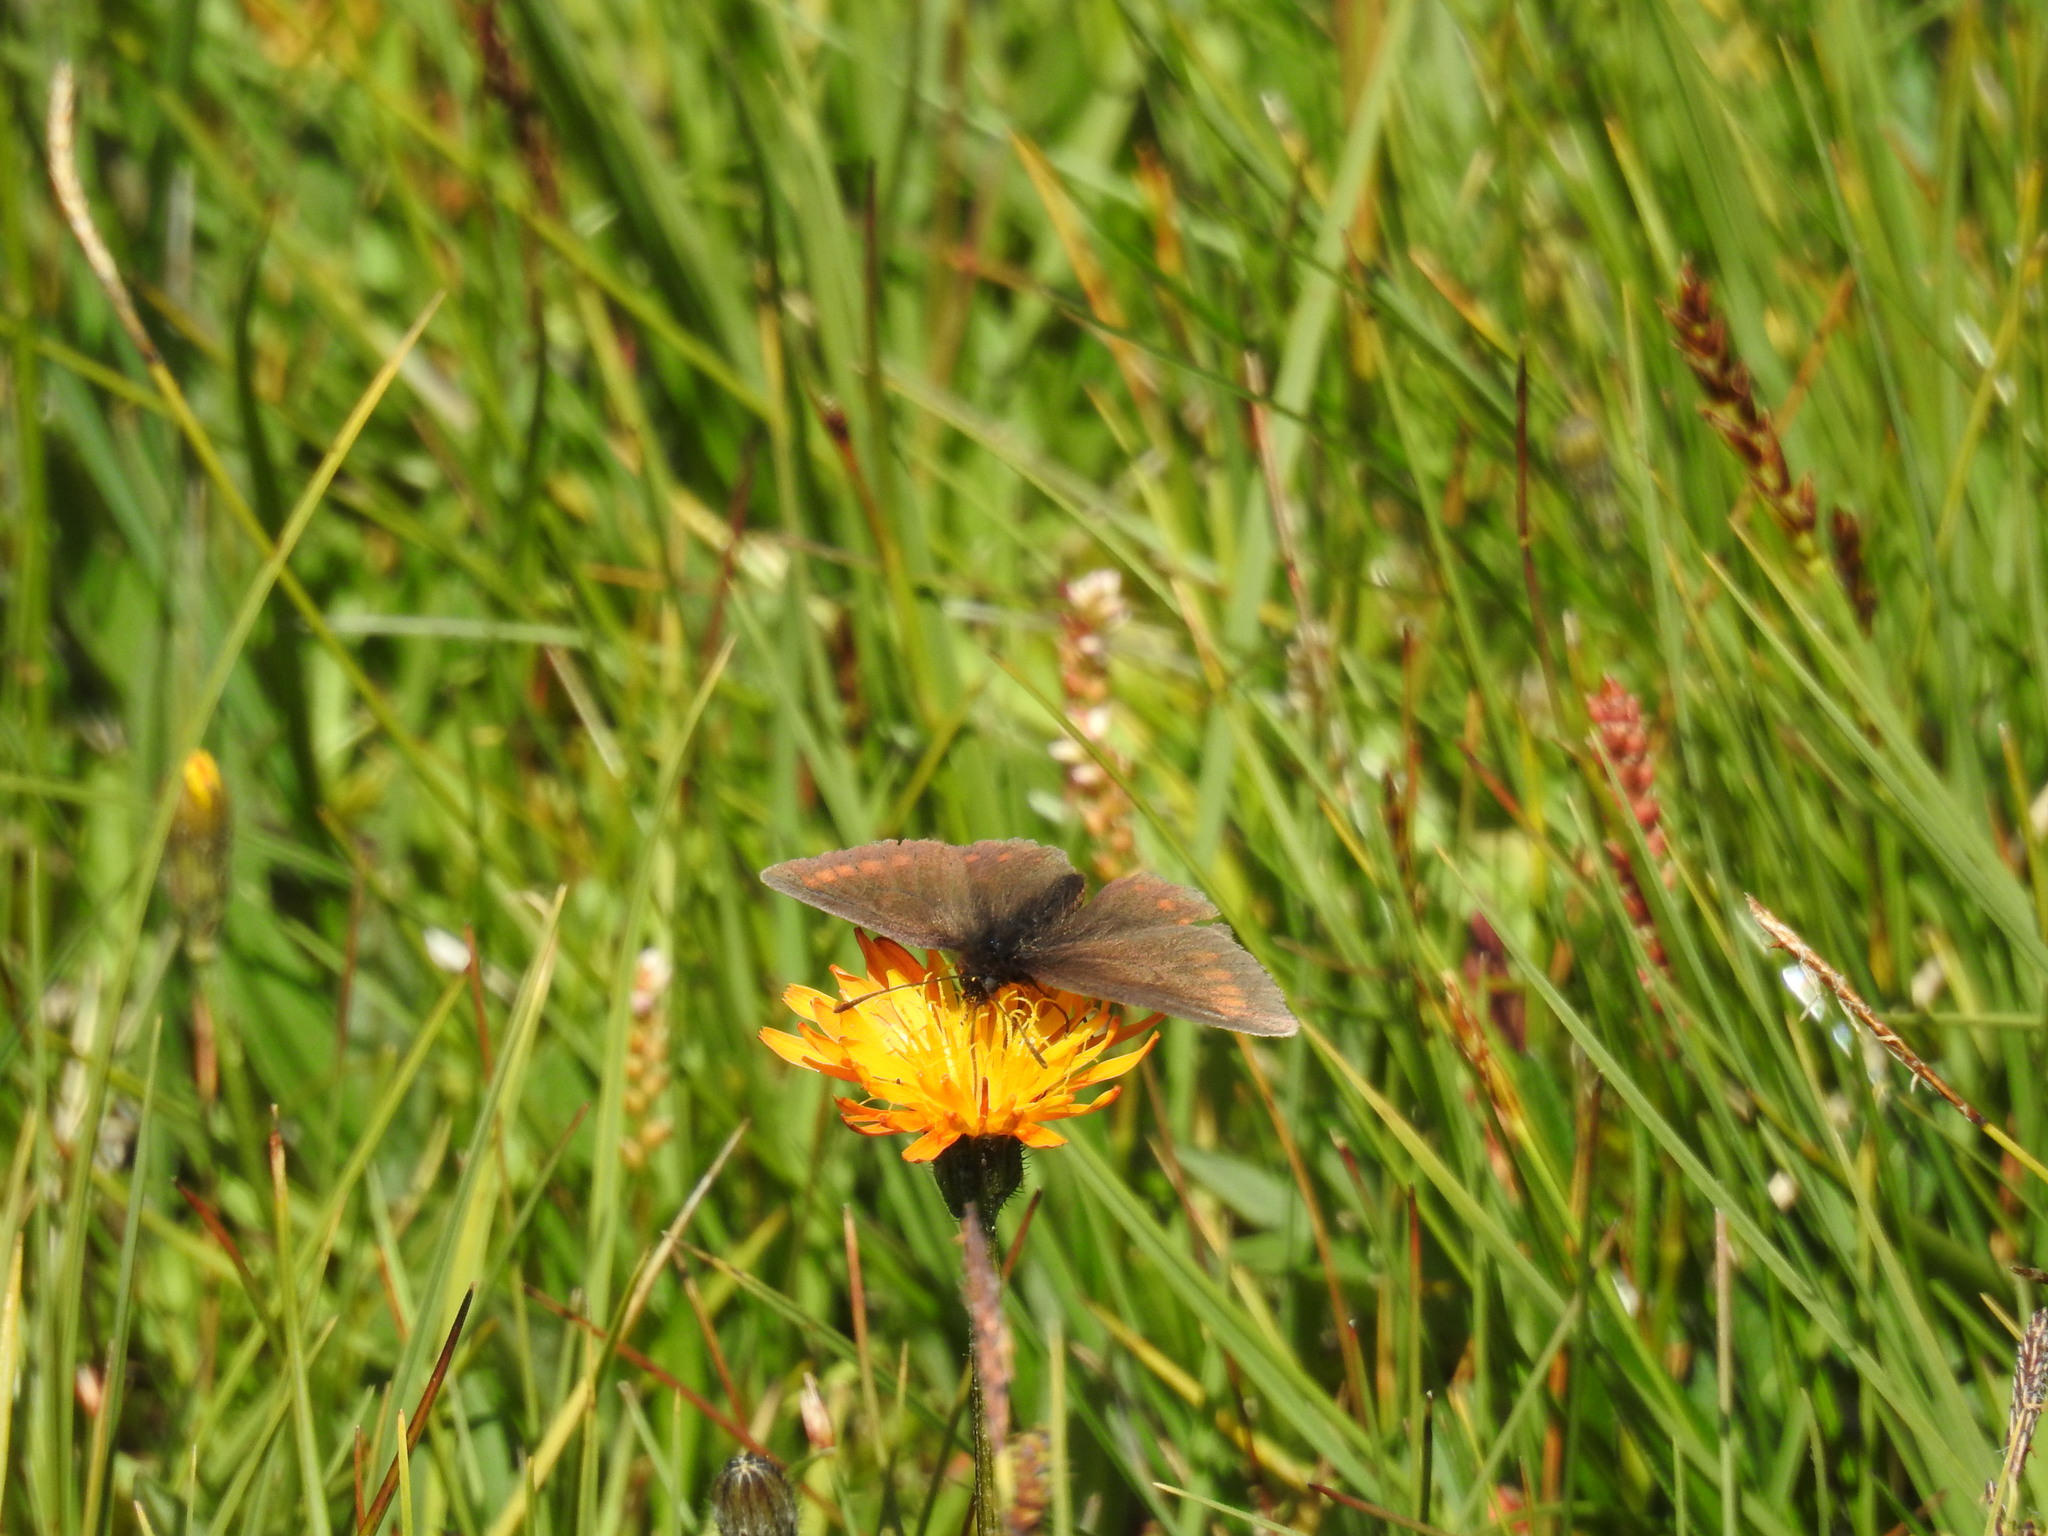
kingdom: Animalia
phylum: Arthropoda
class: Insecta
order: Lepidoptera
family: Nymphalidae
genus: Erebia
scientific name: Erebia pharte
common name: Blind ringlet
